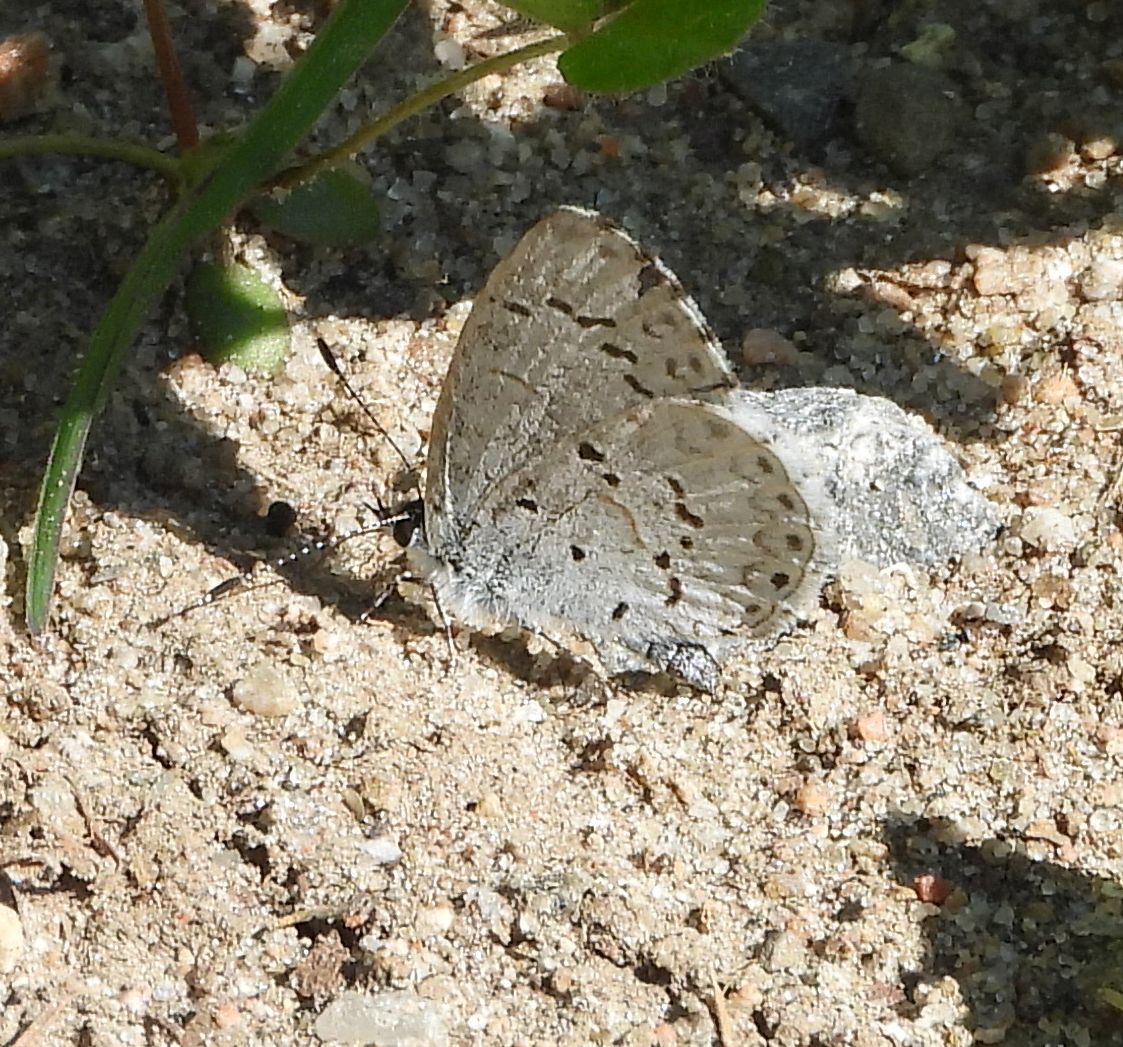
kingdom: Animalia
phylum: Arthropoda
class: Insecta
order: Lepidoptera
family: Lycaenidae
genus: Celastrina
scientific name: Celastrina lucia
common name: Lucia azure
